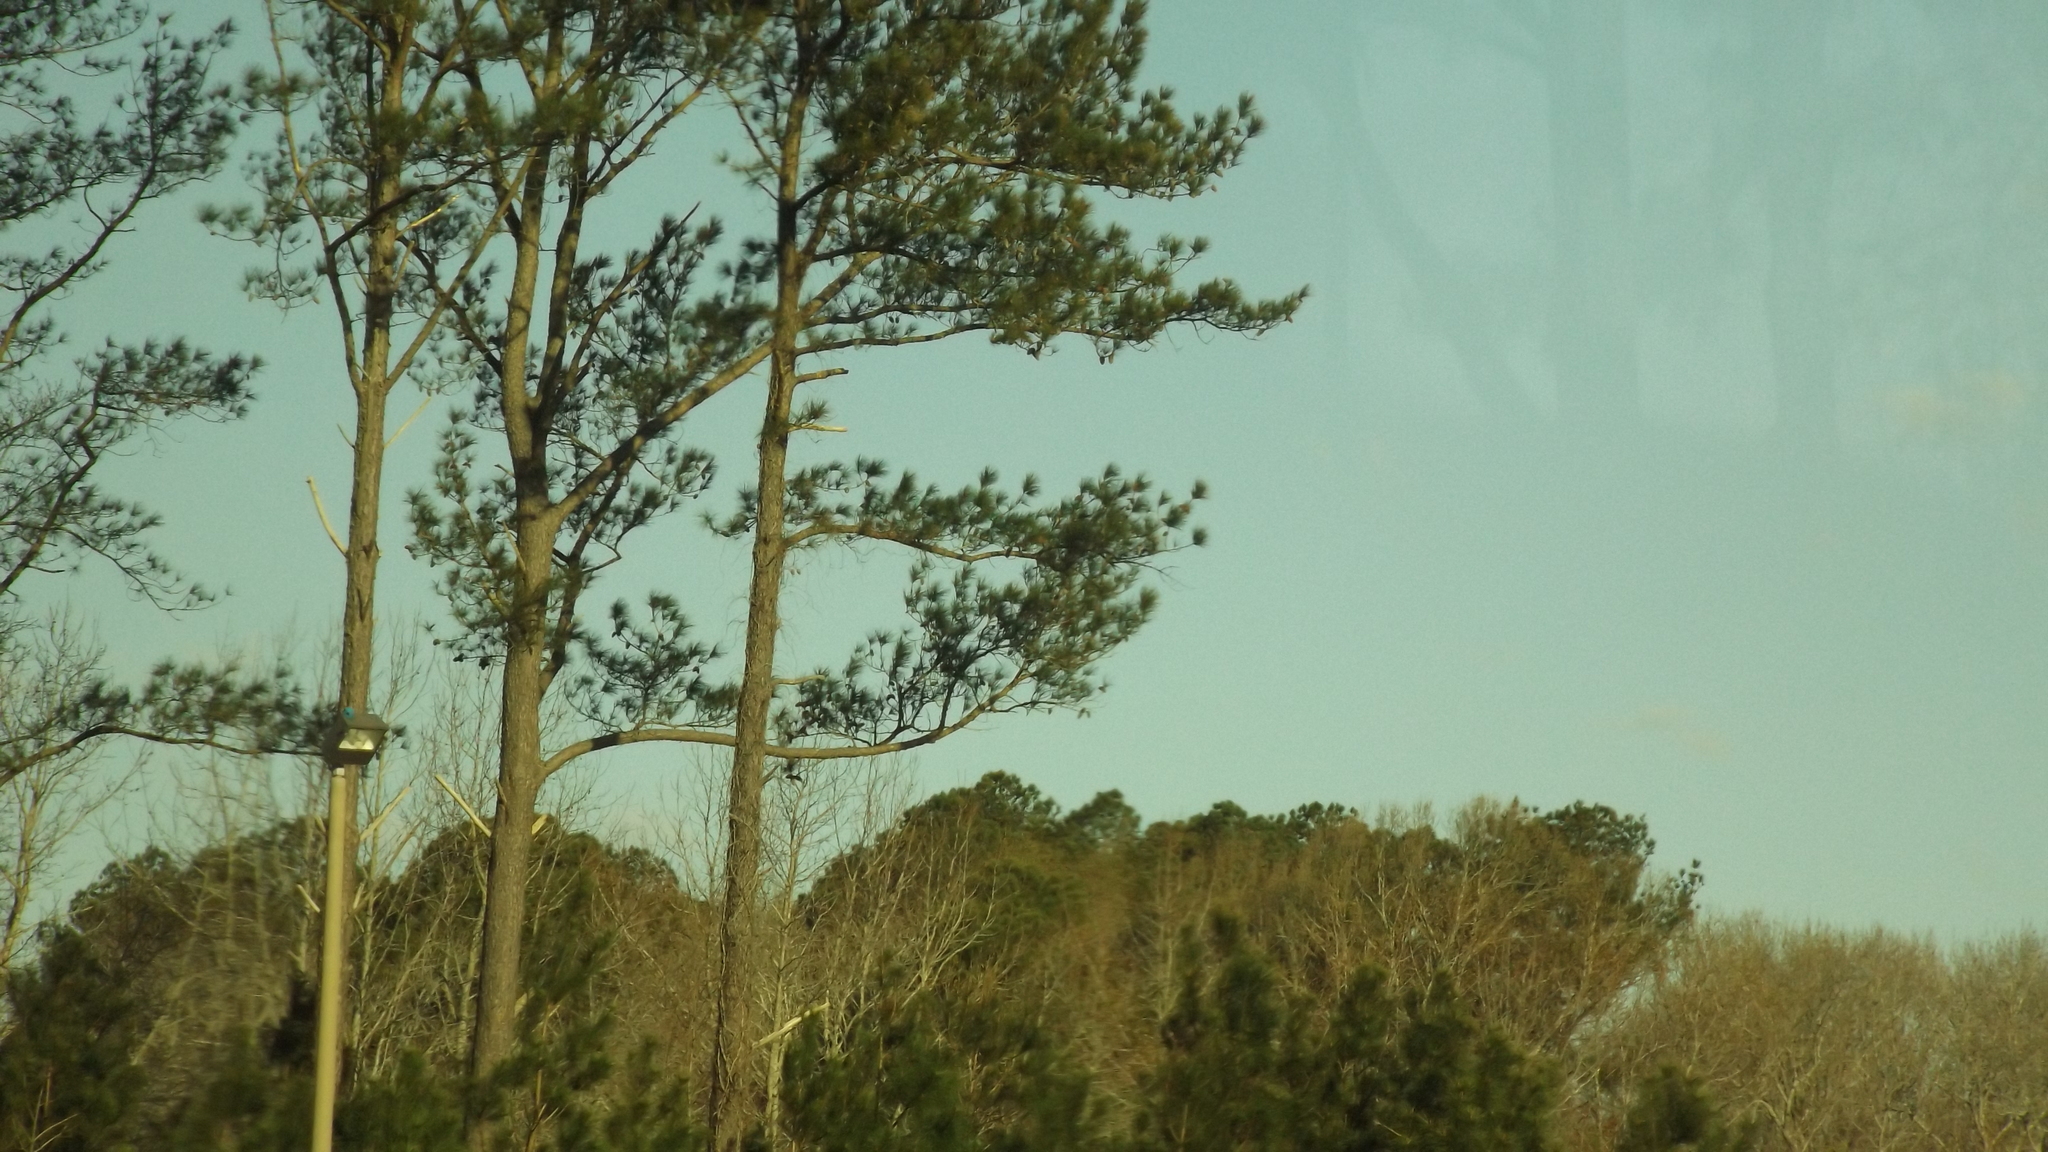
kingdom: Plantae
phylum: Tracheophyta
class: Pinopsida
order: Pinales
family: Pinaceae
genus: Pinus
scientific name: Pinus taeda
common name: Loblolly pine
